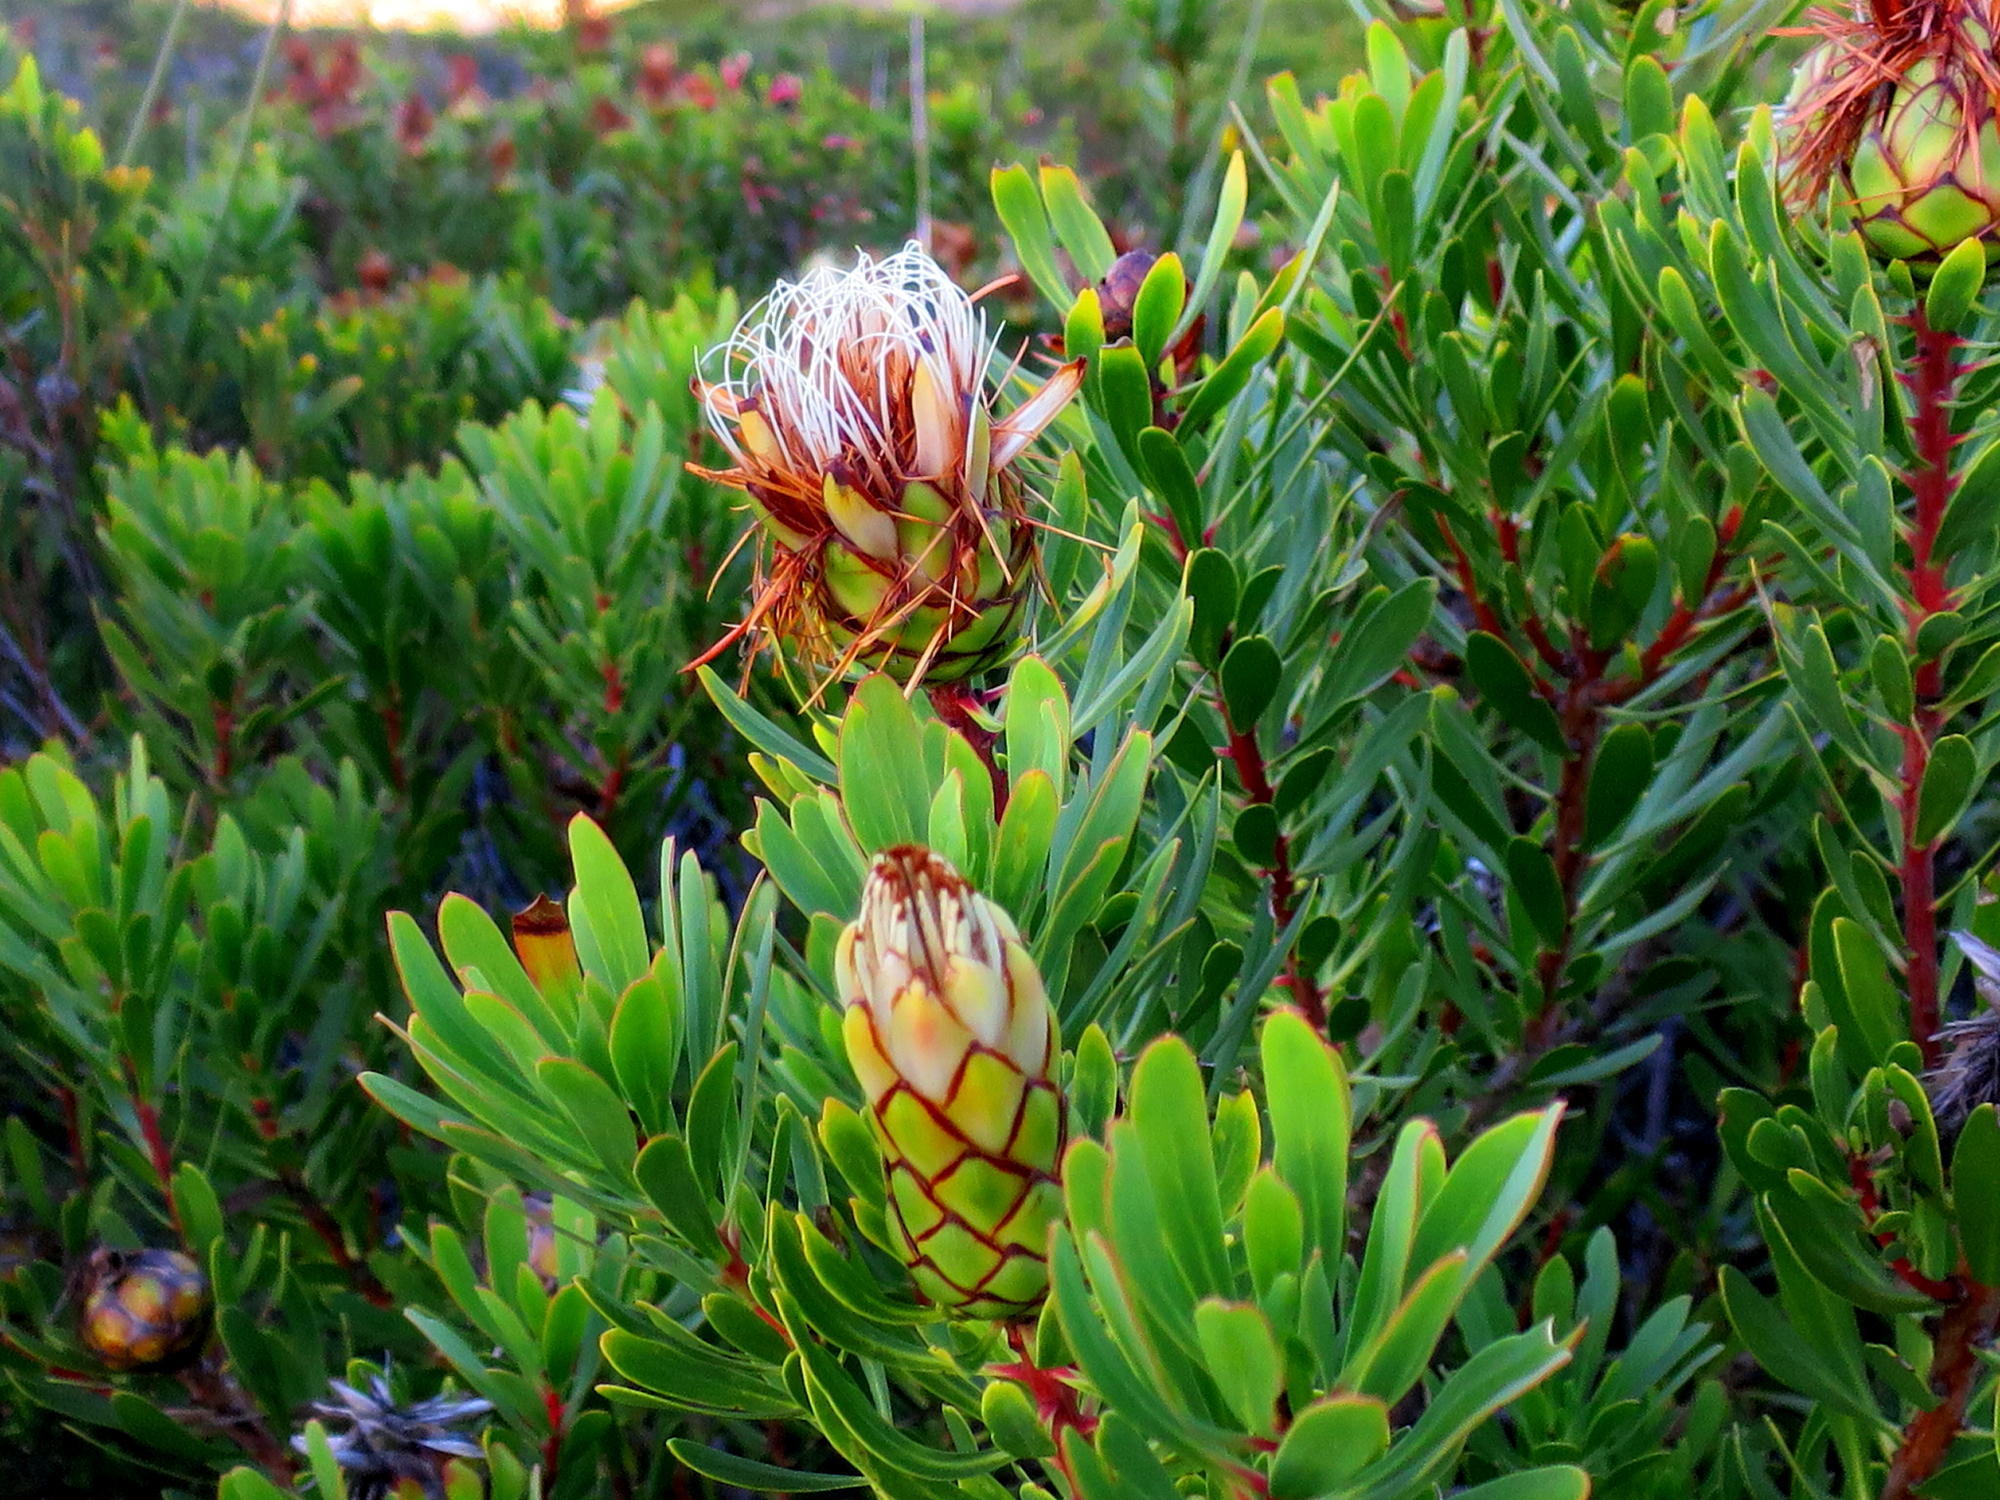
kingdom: Plantae
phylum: Tracheophyta
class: Magnoliopsida
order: Proteales
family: Proteaceae
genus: Protea
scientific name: Protea lanceolata
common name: Lance-leaved protea
